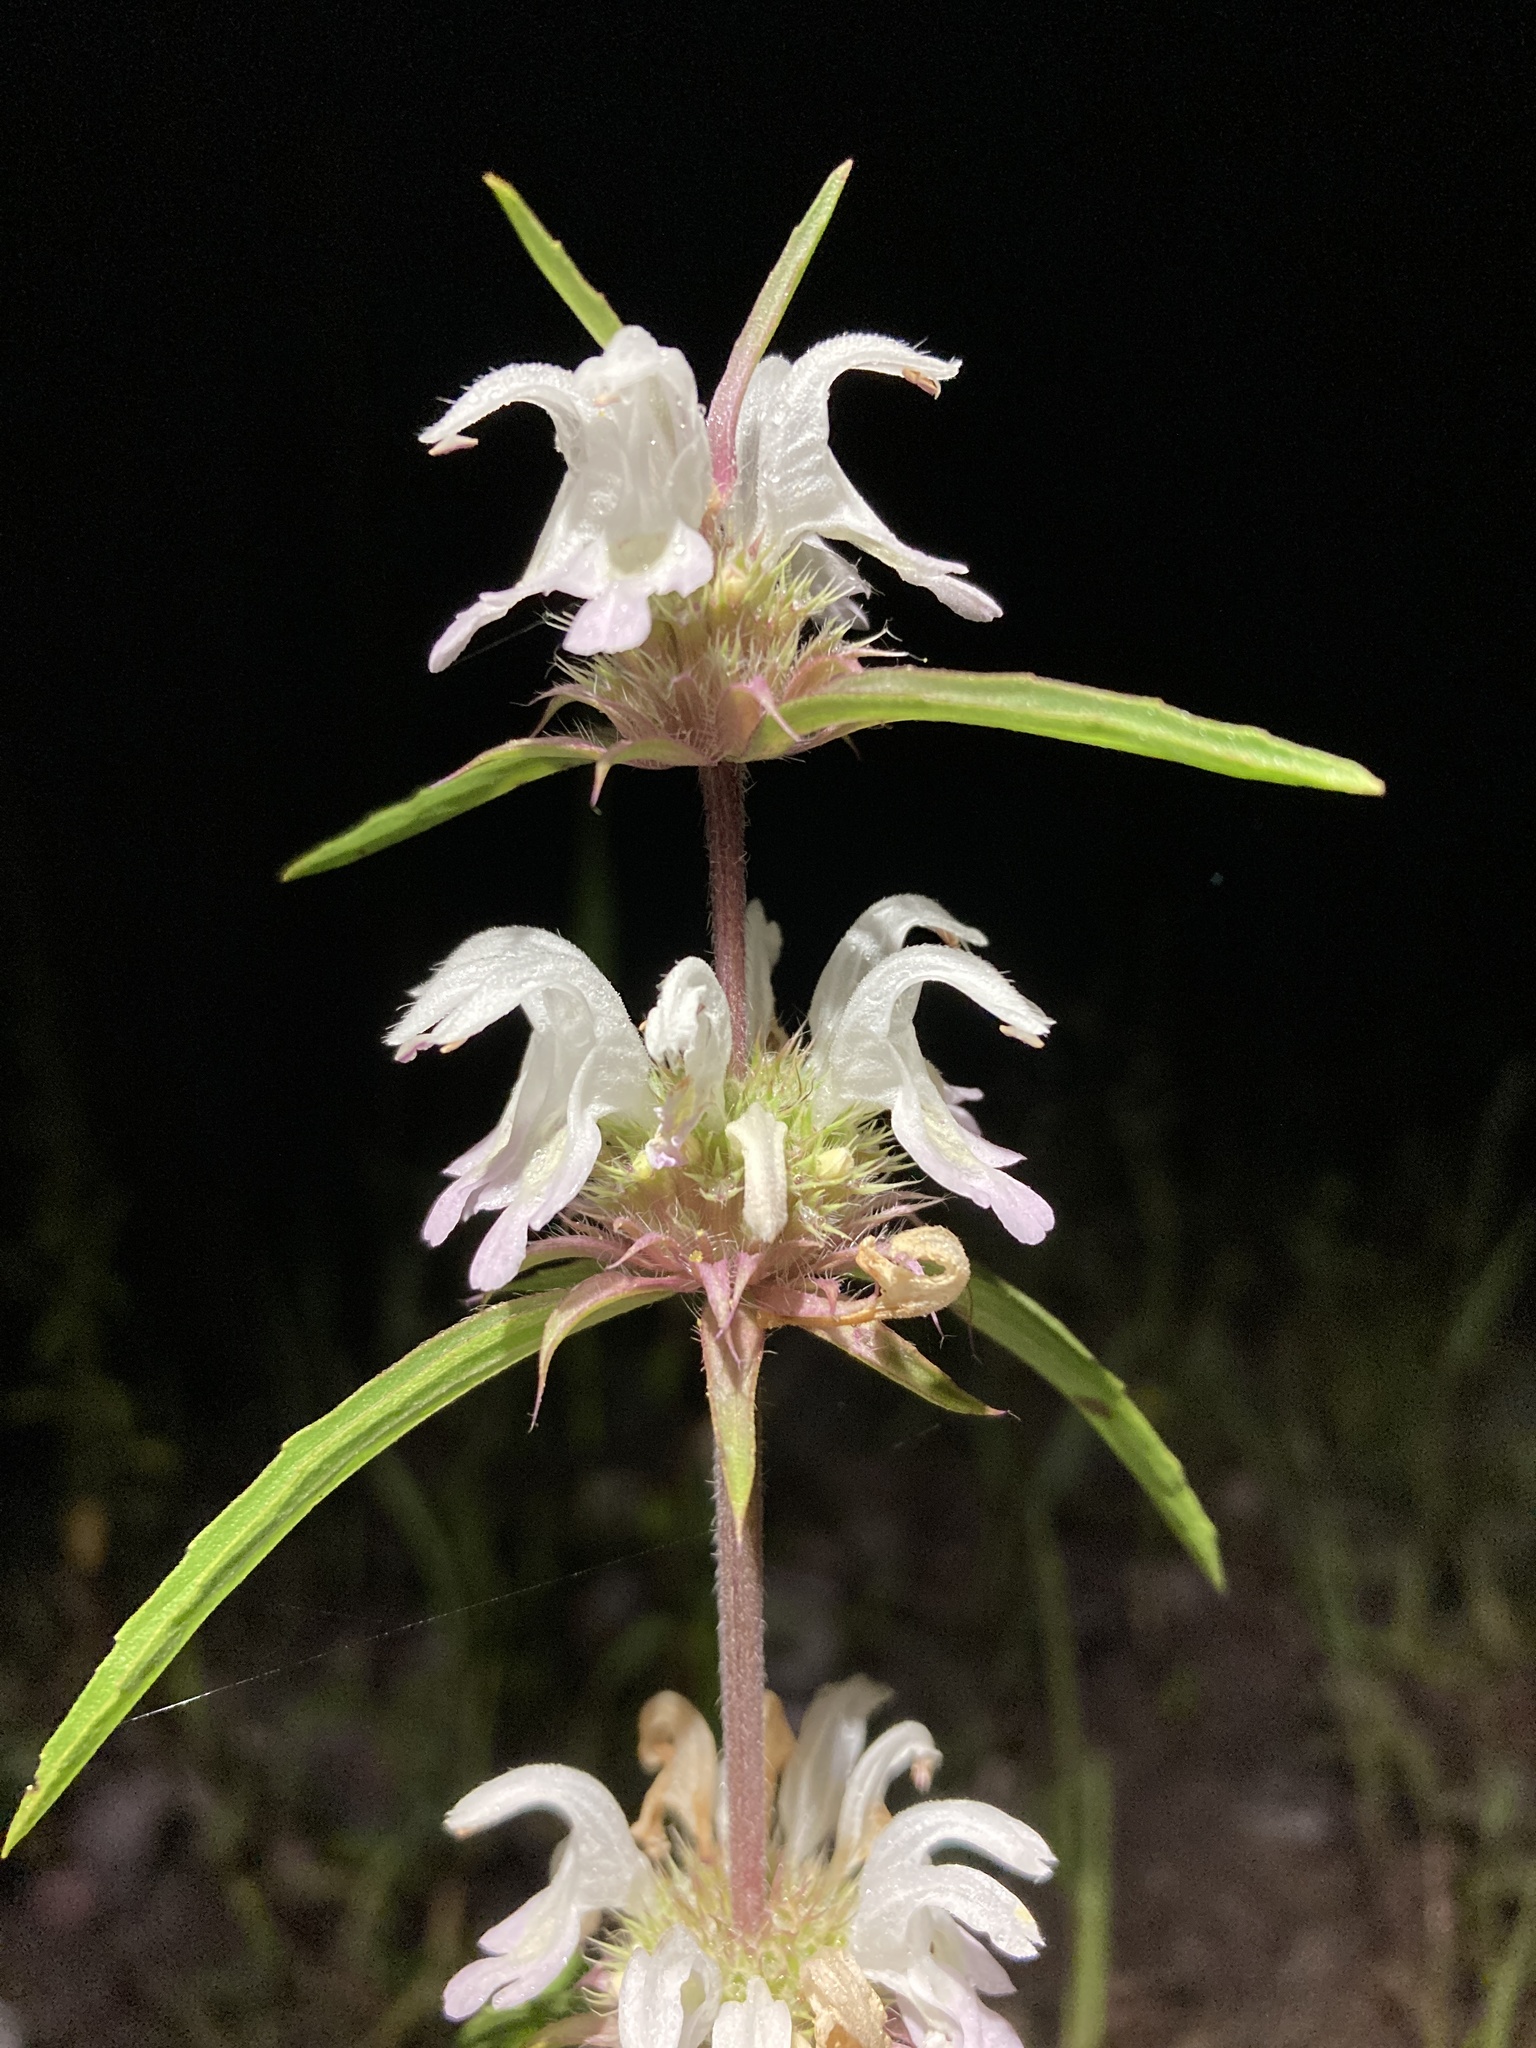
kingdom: Plantae
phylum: Tracheophyta
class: Magnoliopsida
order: Lamiales
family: Lamiaceae
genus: Monarda
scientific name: Monarda pectinata
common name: Plains beebalm
